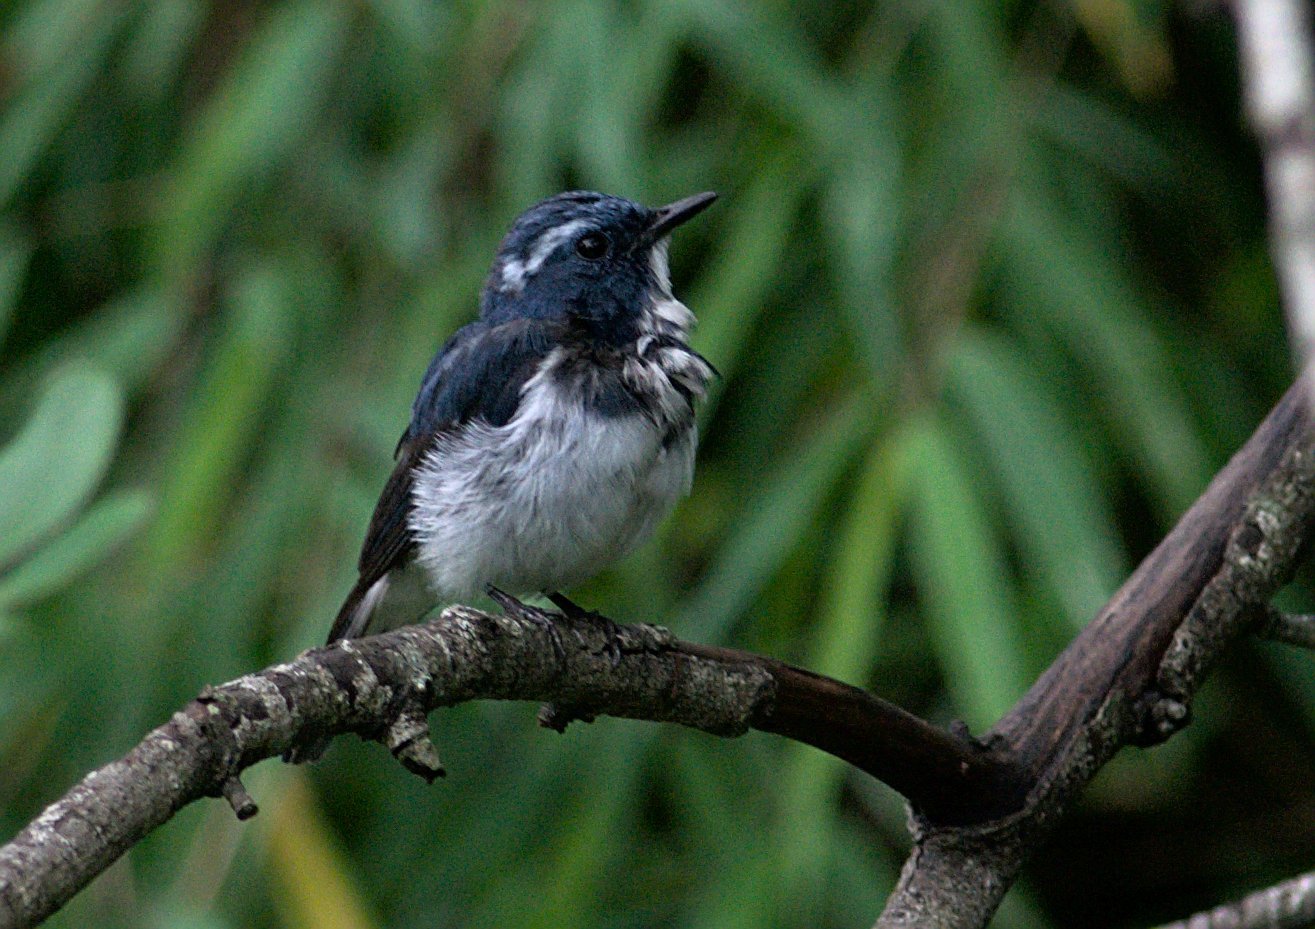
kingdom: Animalia
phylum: Chordata
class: Aves
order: Passeriformes
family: Muscicapidae
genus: Ficedula
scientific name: Ficedula superciliaris
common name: Ultramarine flycatcher
